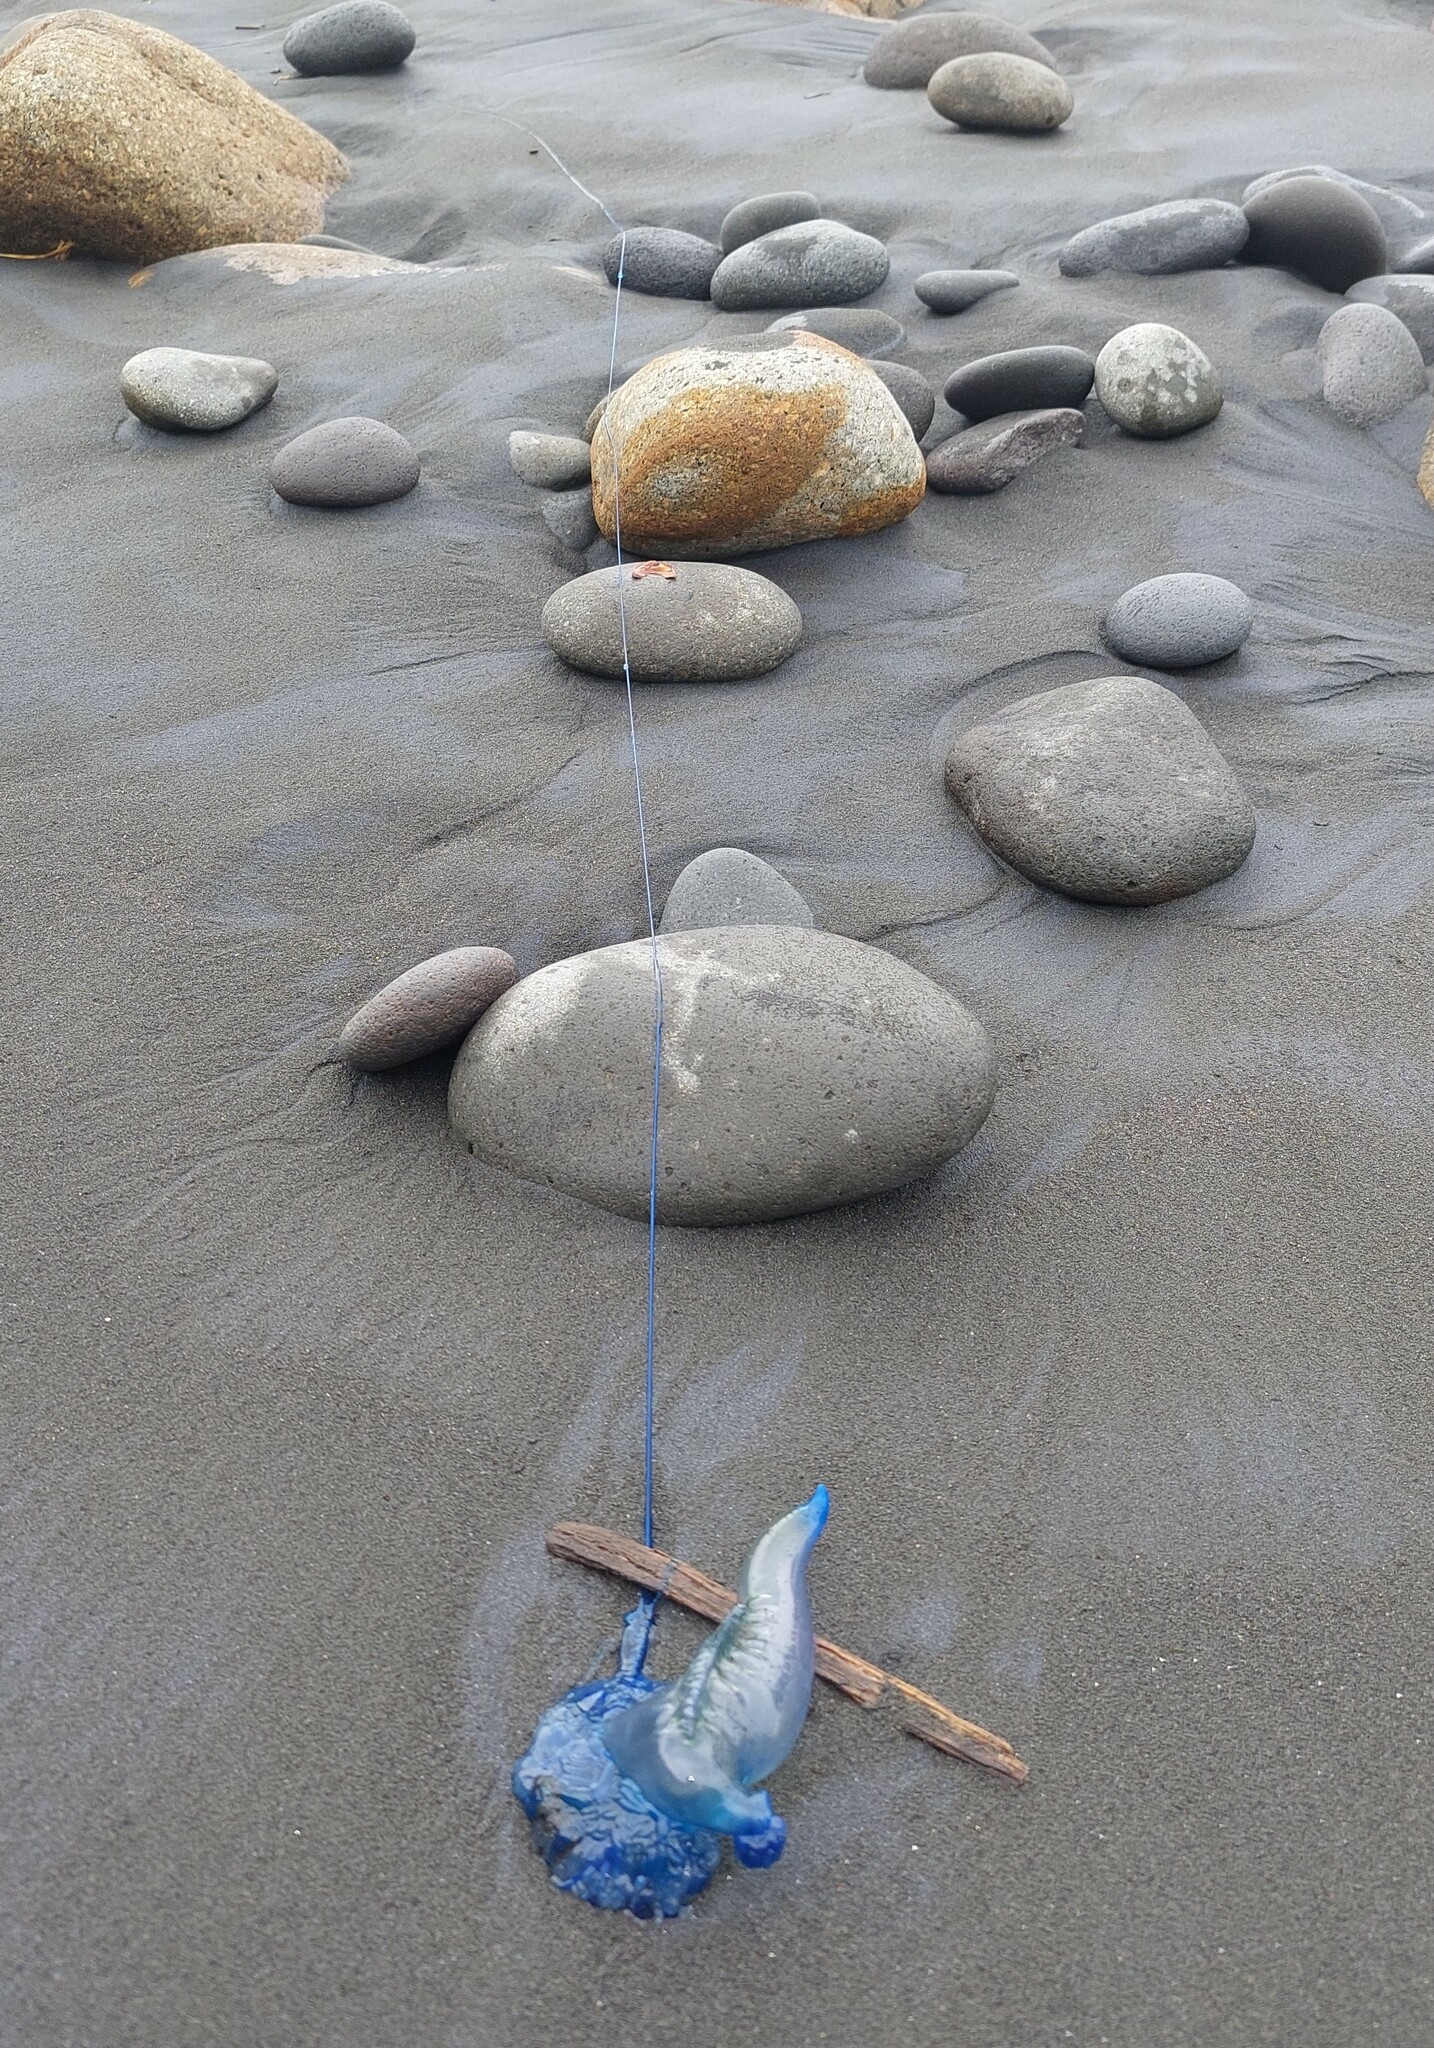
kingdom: Animalia
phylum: Cnidaria
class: Hydrozoa
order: Siphonophorae
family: Physaliidae
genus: Physalia
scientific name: Physalia physalis
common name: Portuguese man-of-war
